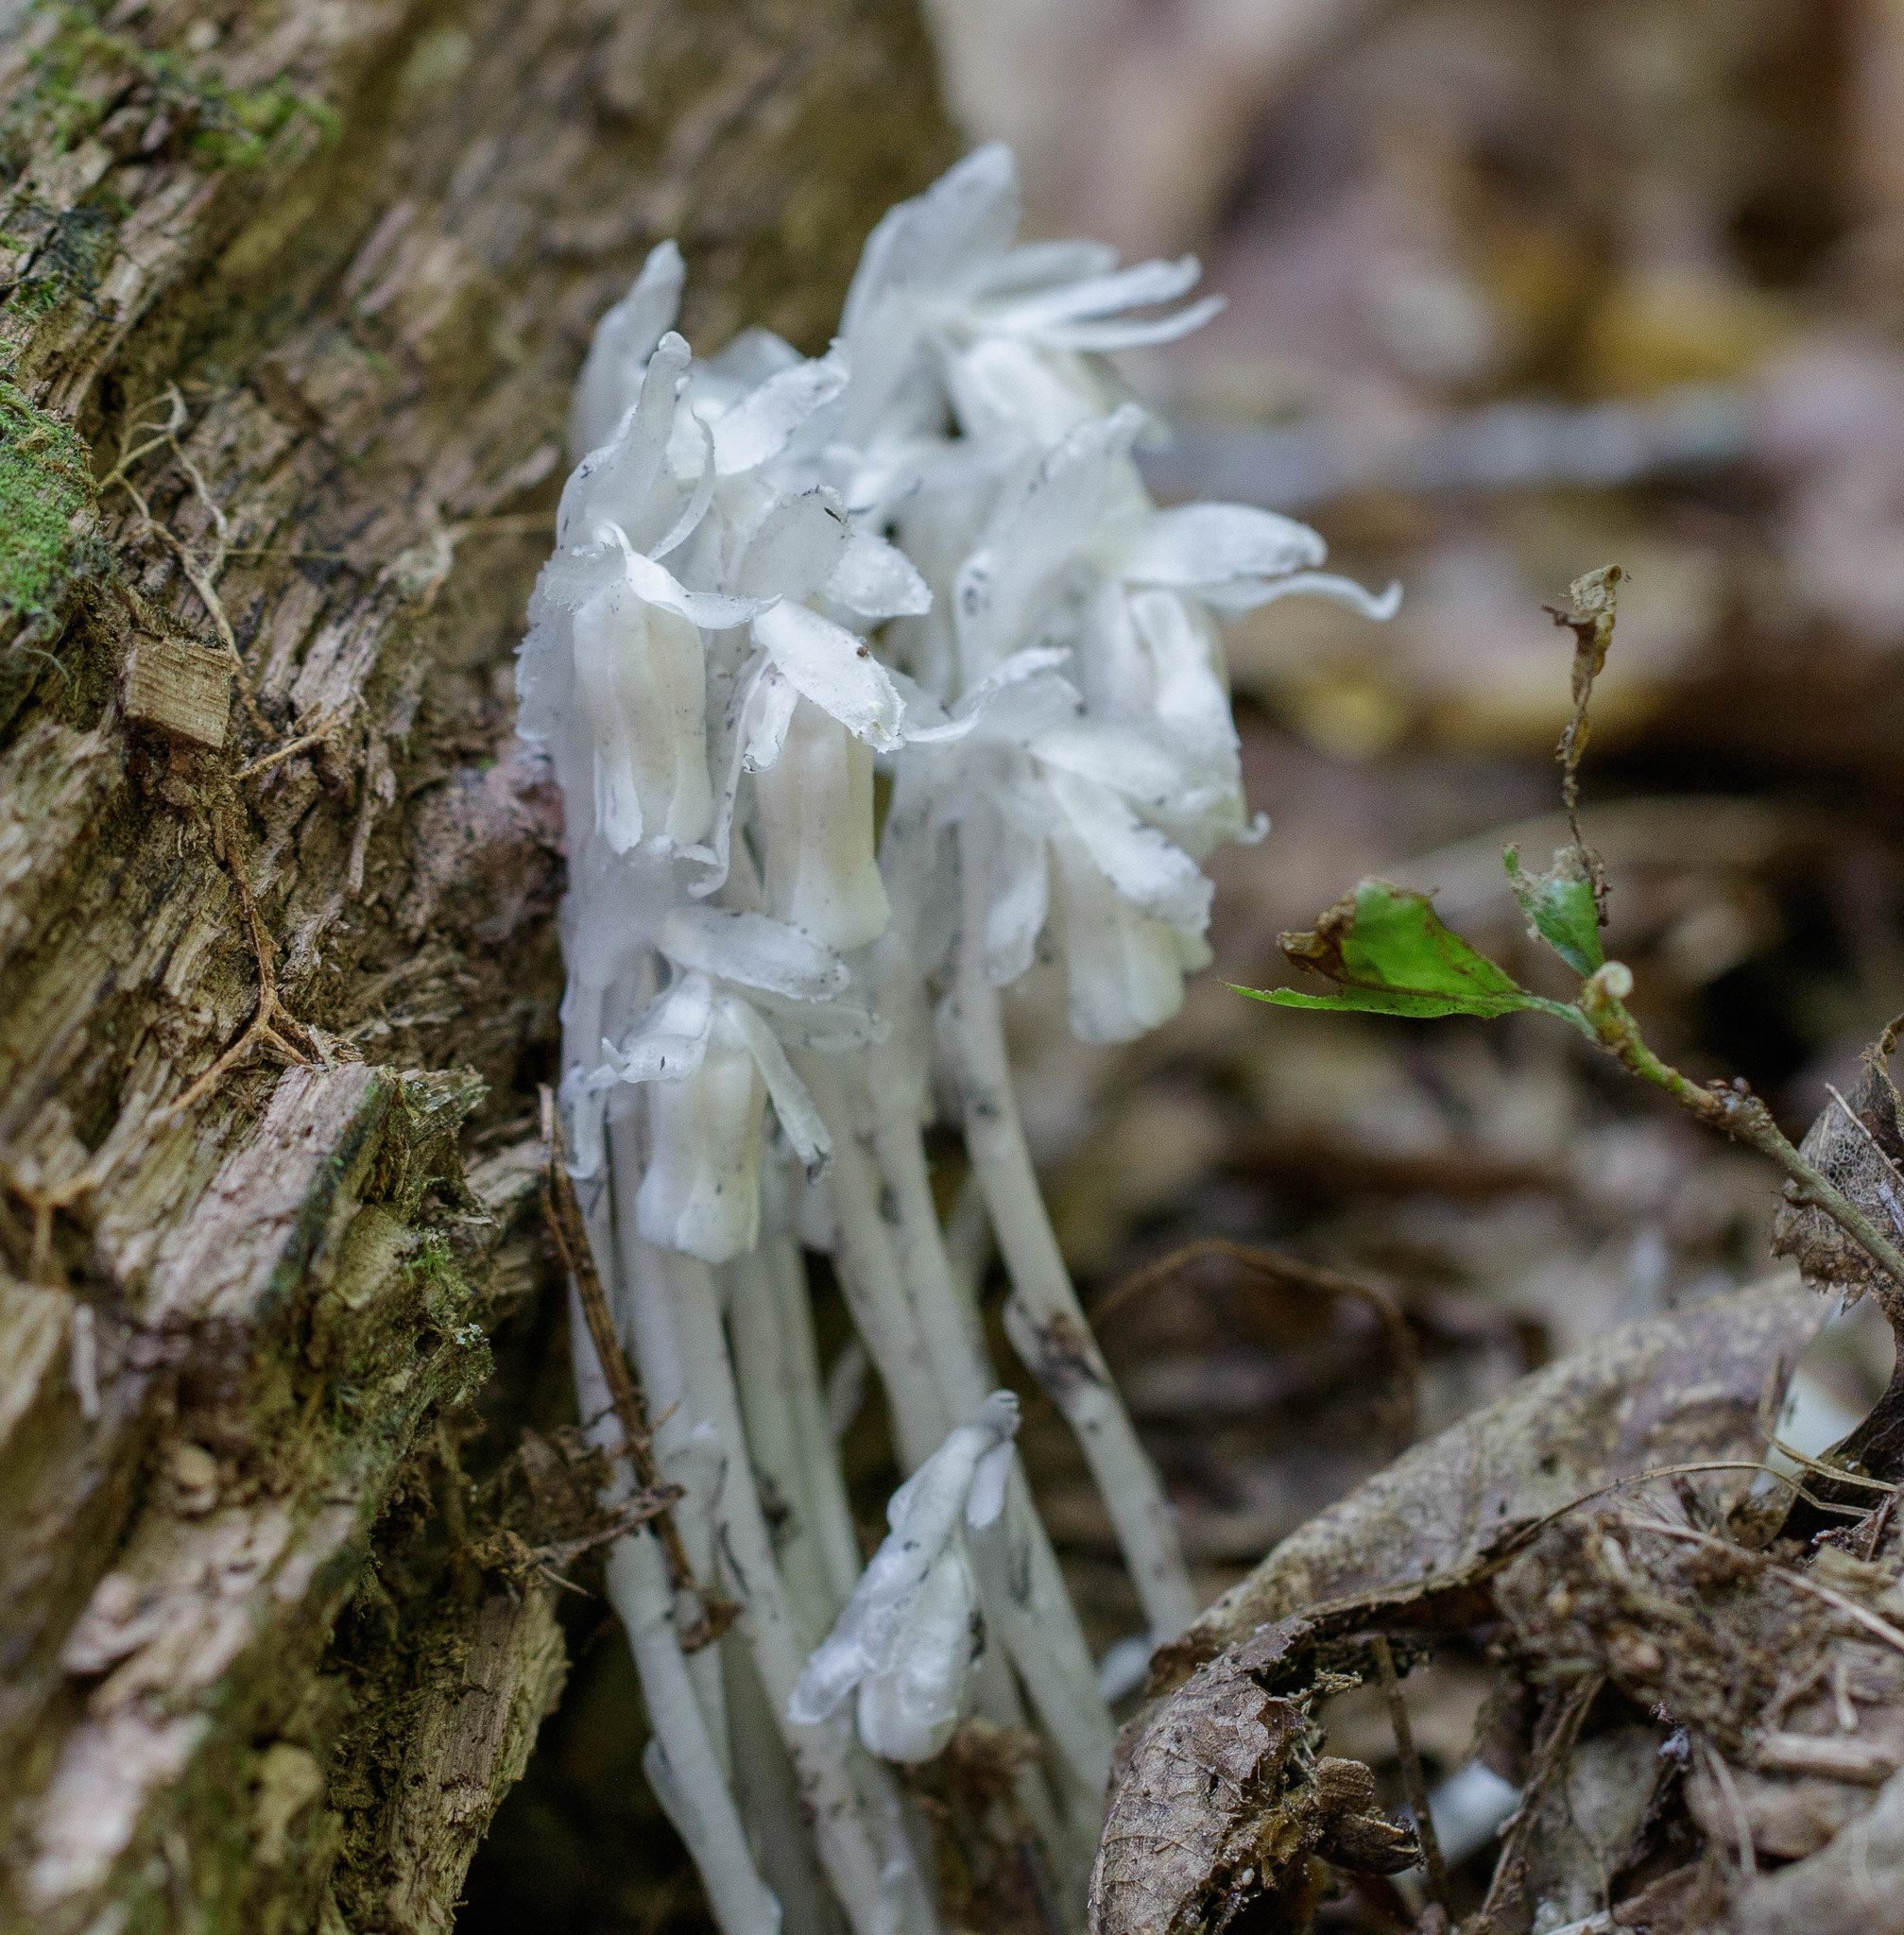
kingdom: Plantae
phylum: Tracheophyta
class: Magnoliopsida
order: Ericales
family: Ericaceae
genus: Monotropa
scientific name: Monotropa uniflora
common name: Convulsion root
